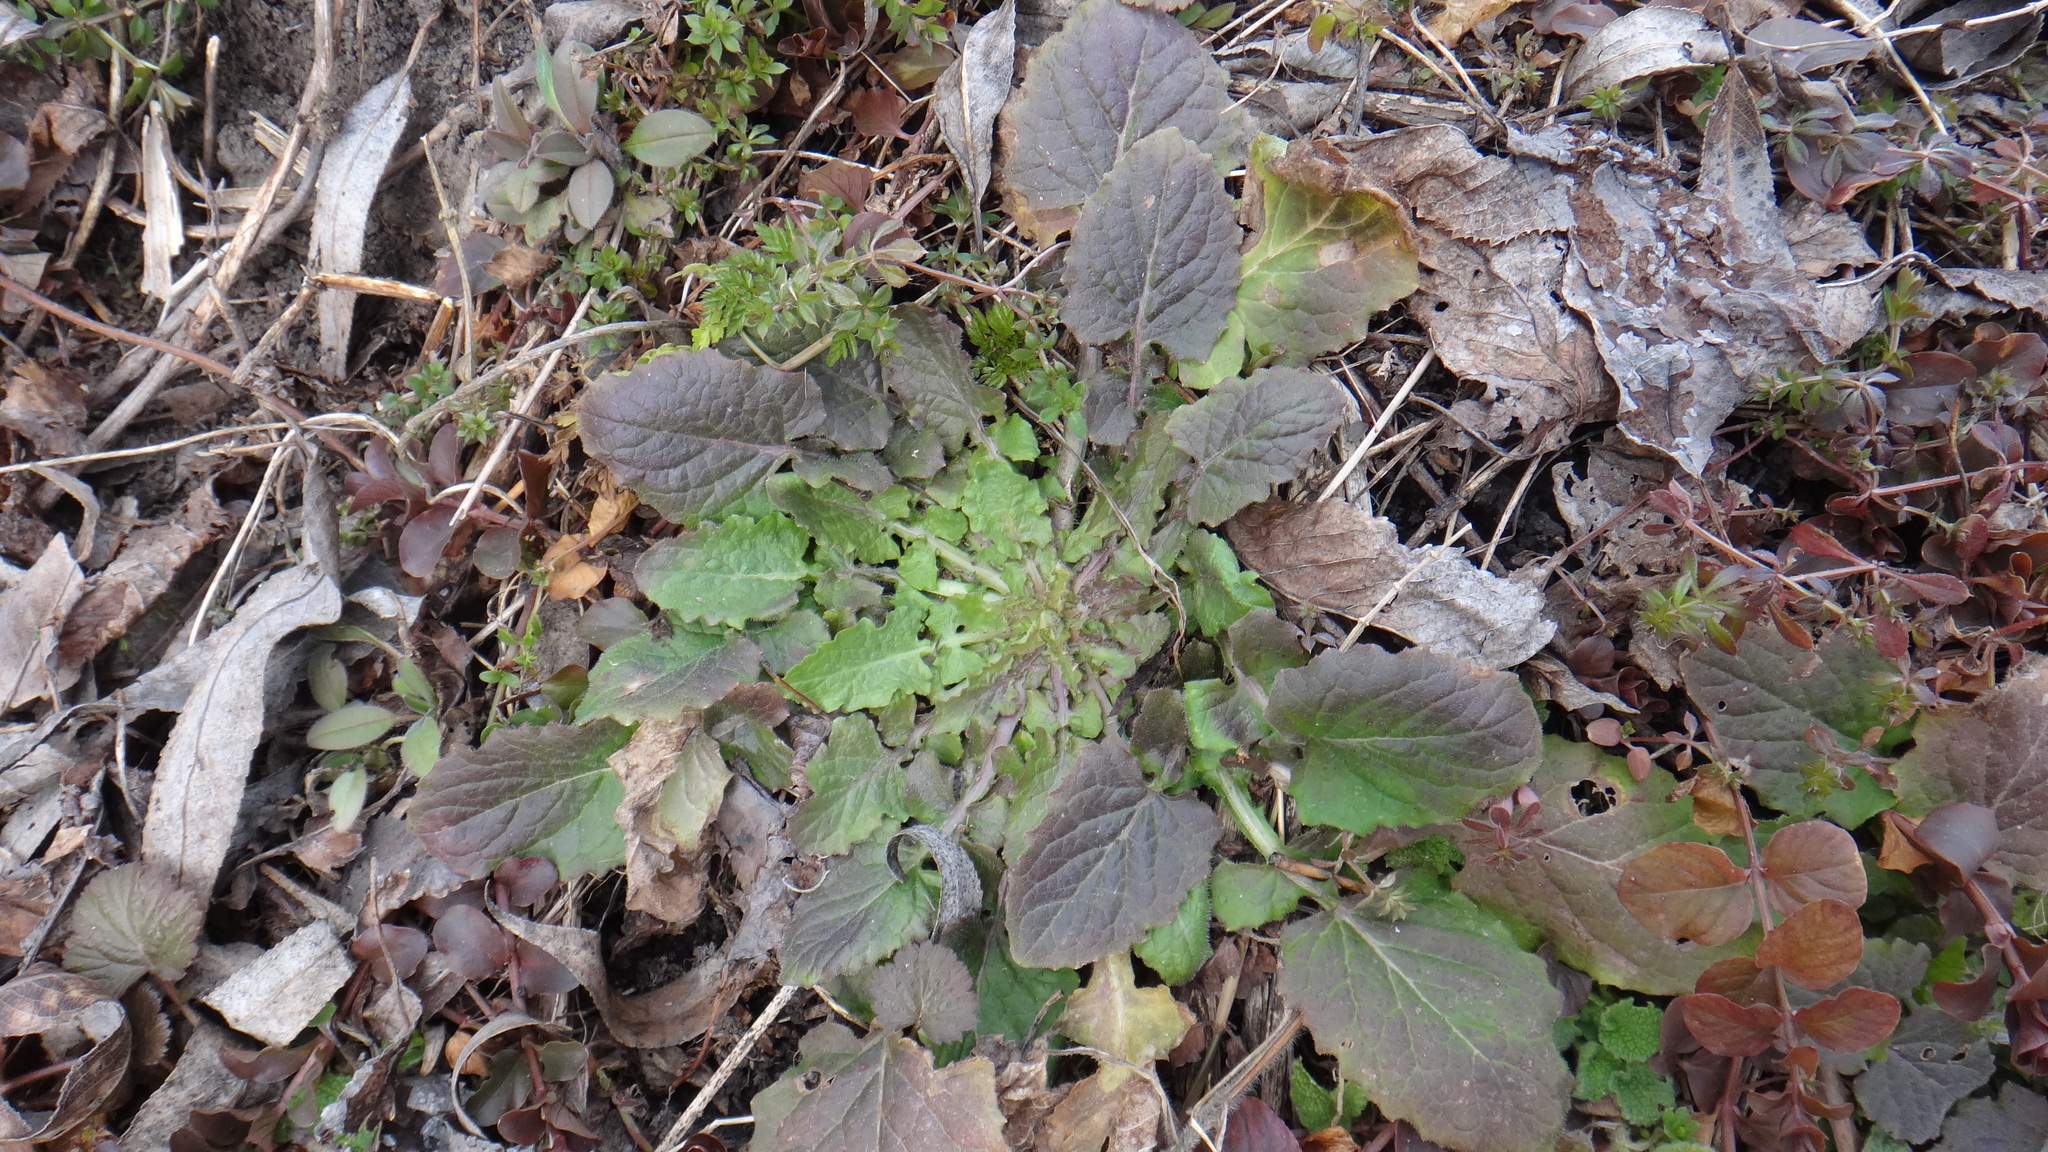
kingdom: Plantae
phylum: Tracheophyta
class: Magnoliopsida
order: Asterales
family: Asteraceae
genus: Lapsana
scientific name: Lapsana communis
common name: Nipplewort
